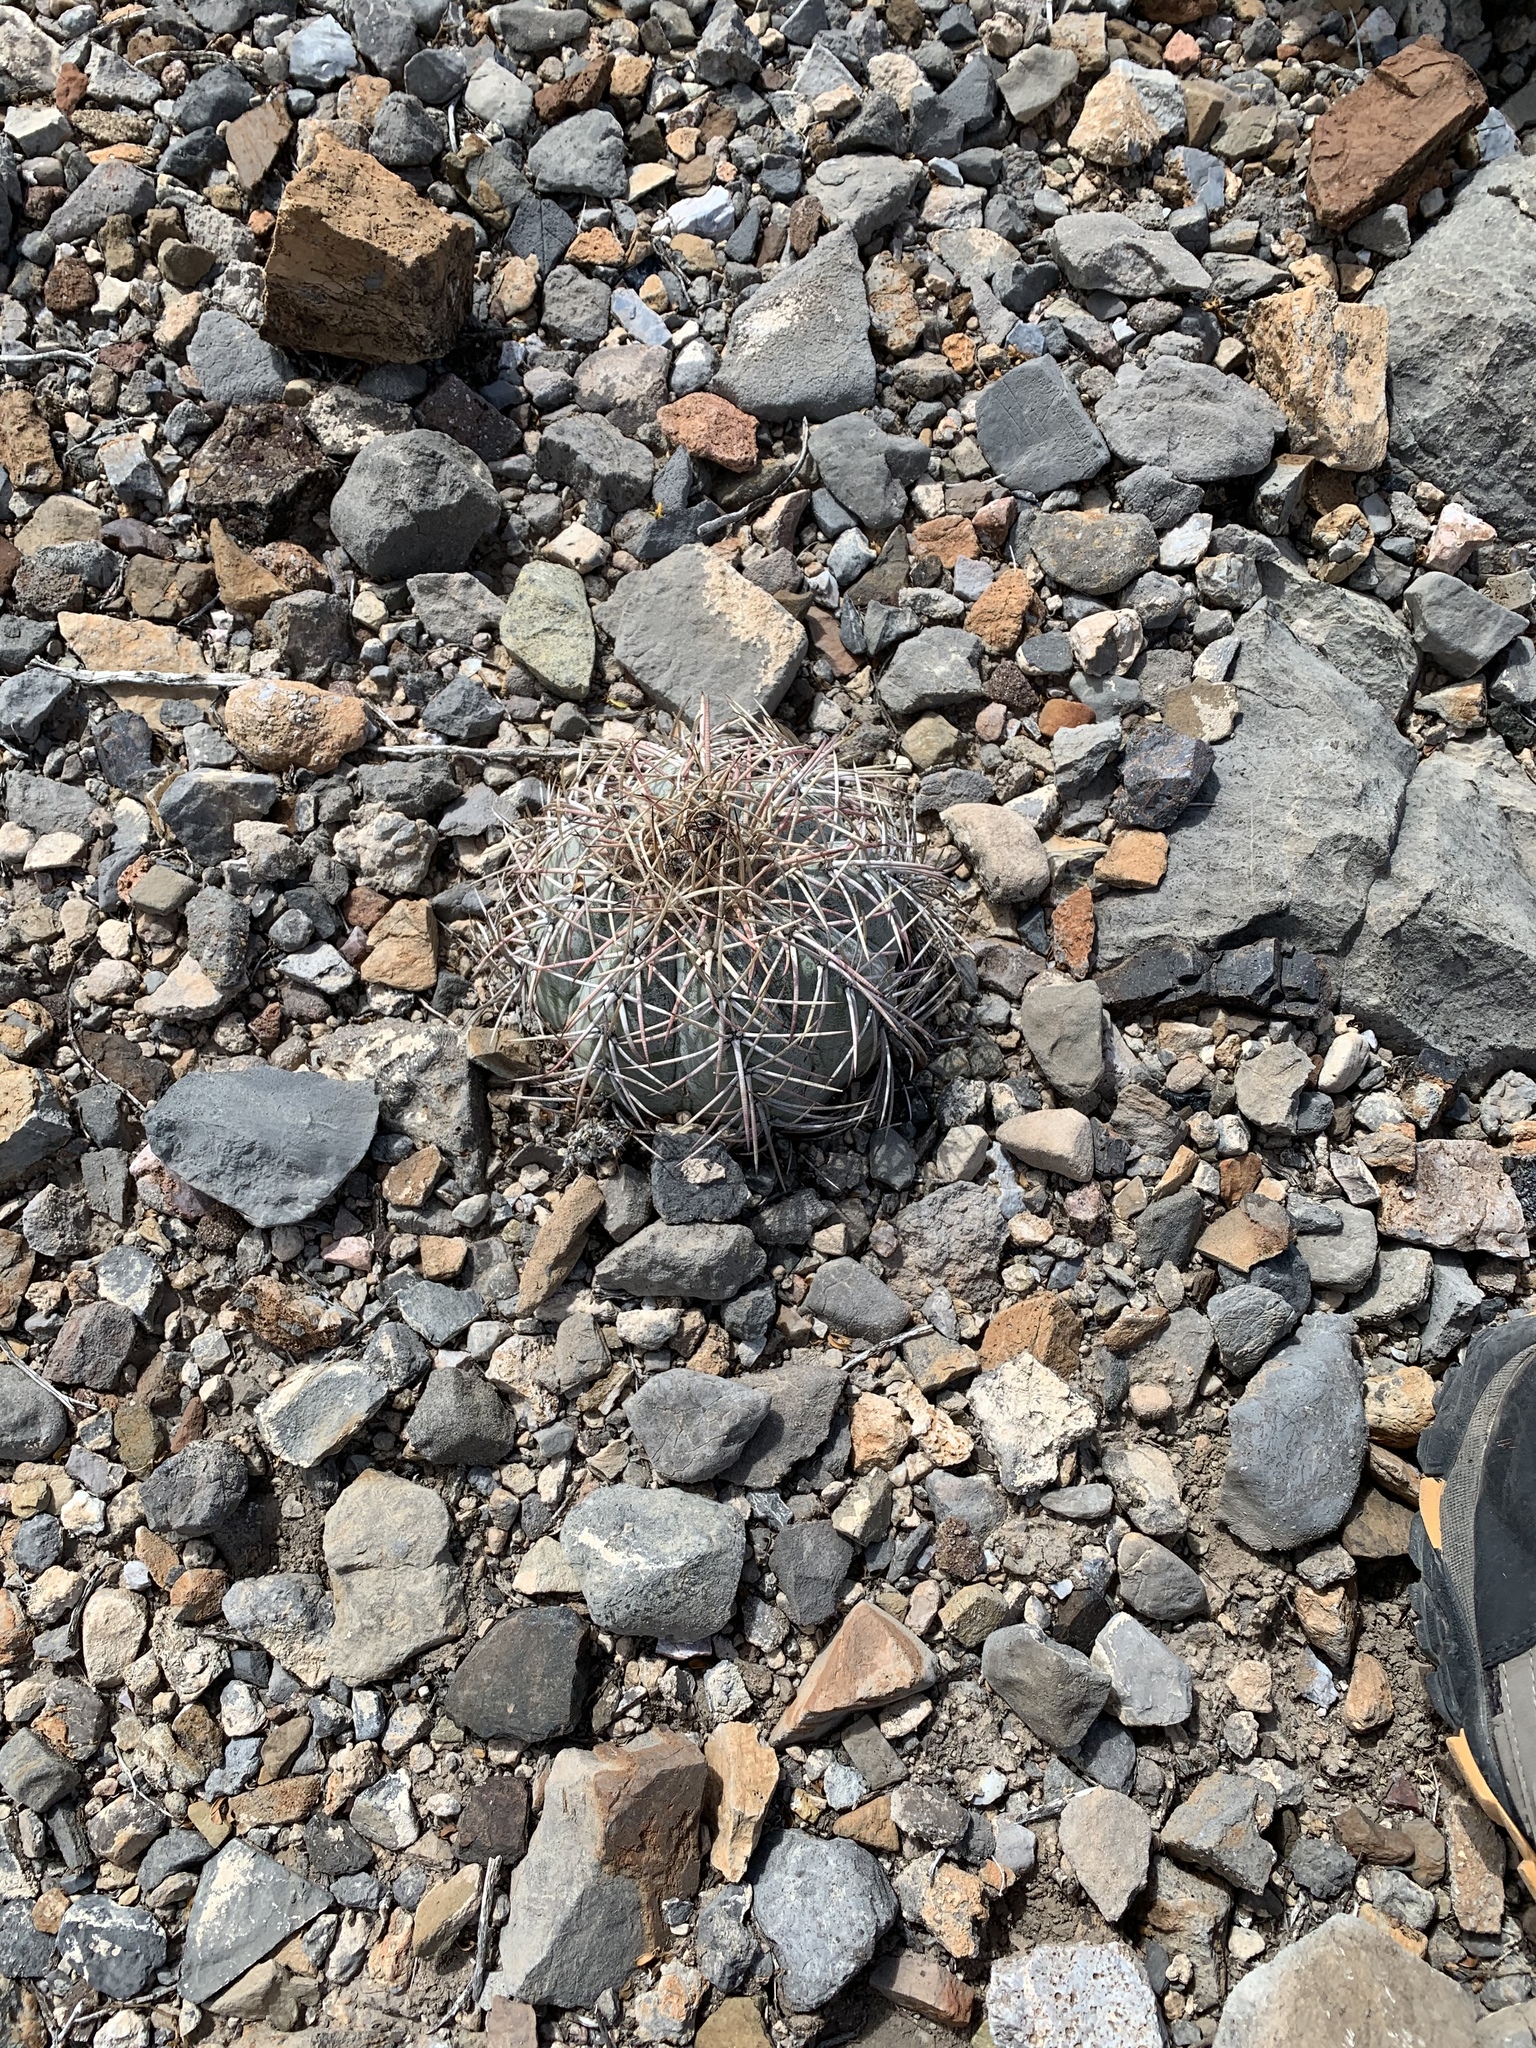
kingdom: Plantae
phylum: Tracheophyta
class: Magnoliopsida
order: Caryophyllales
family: Cactaceae
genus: Echinocactus
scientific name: Echinocactus horizonthalonius
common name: Devilshead
